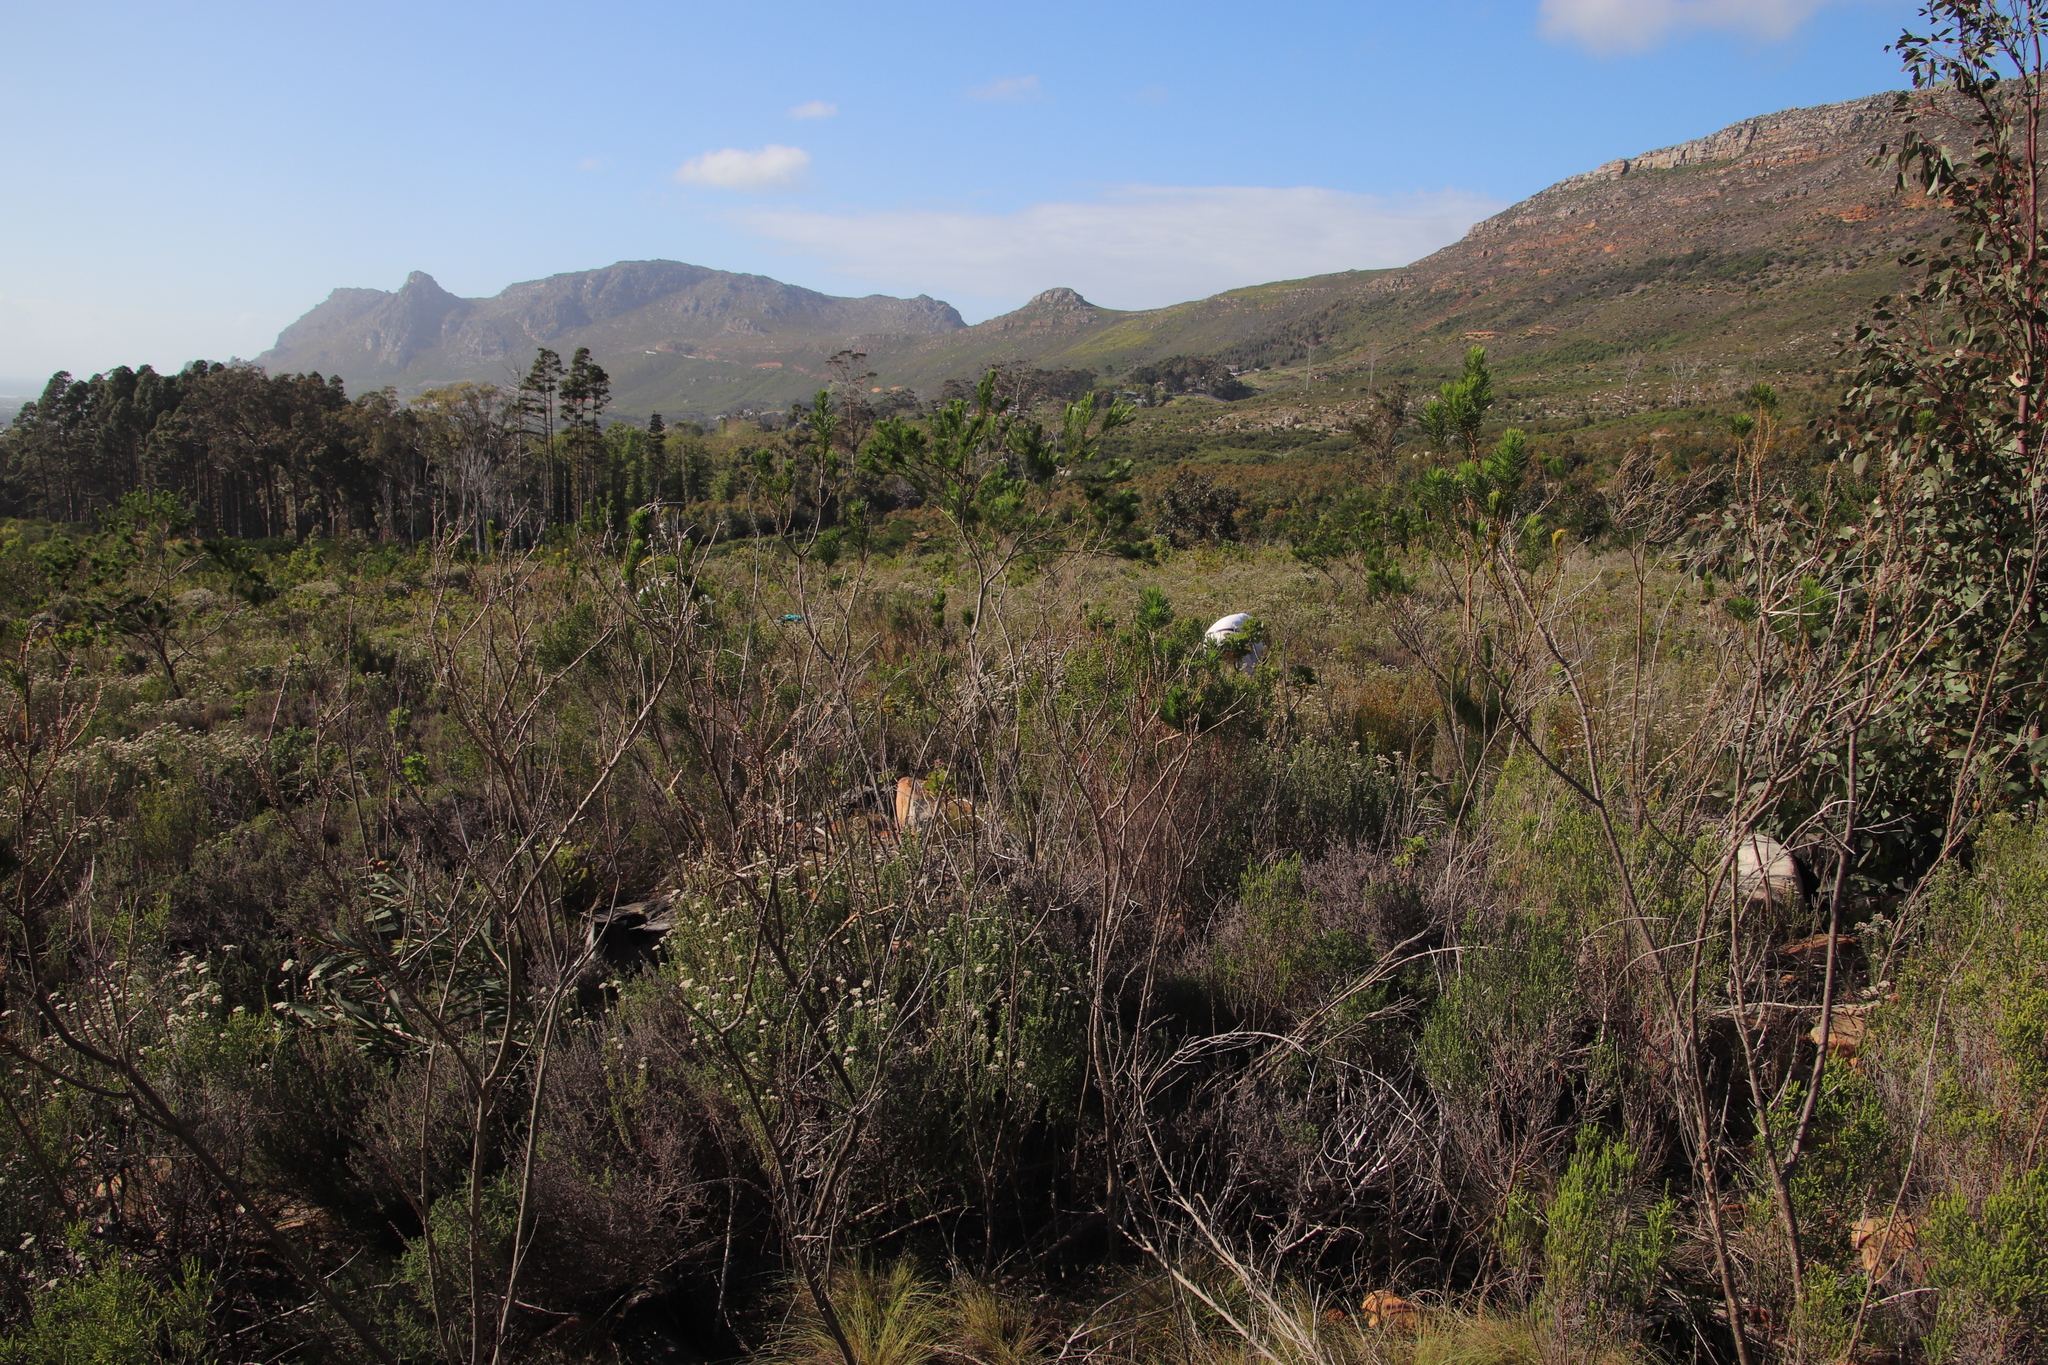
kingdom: Plantae
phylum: Tracheophyta
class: Magnoliopsida
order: Fabales
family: Fabaceae
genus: Psoralea
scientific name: Psoralea pinnata
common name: African scurfpea
